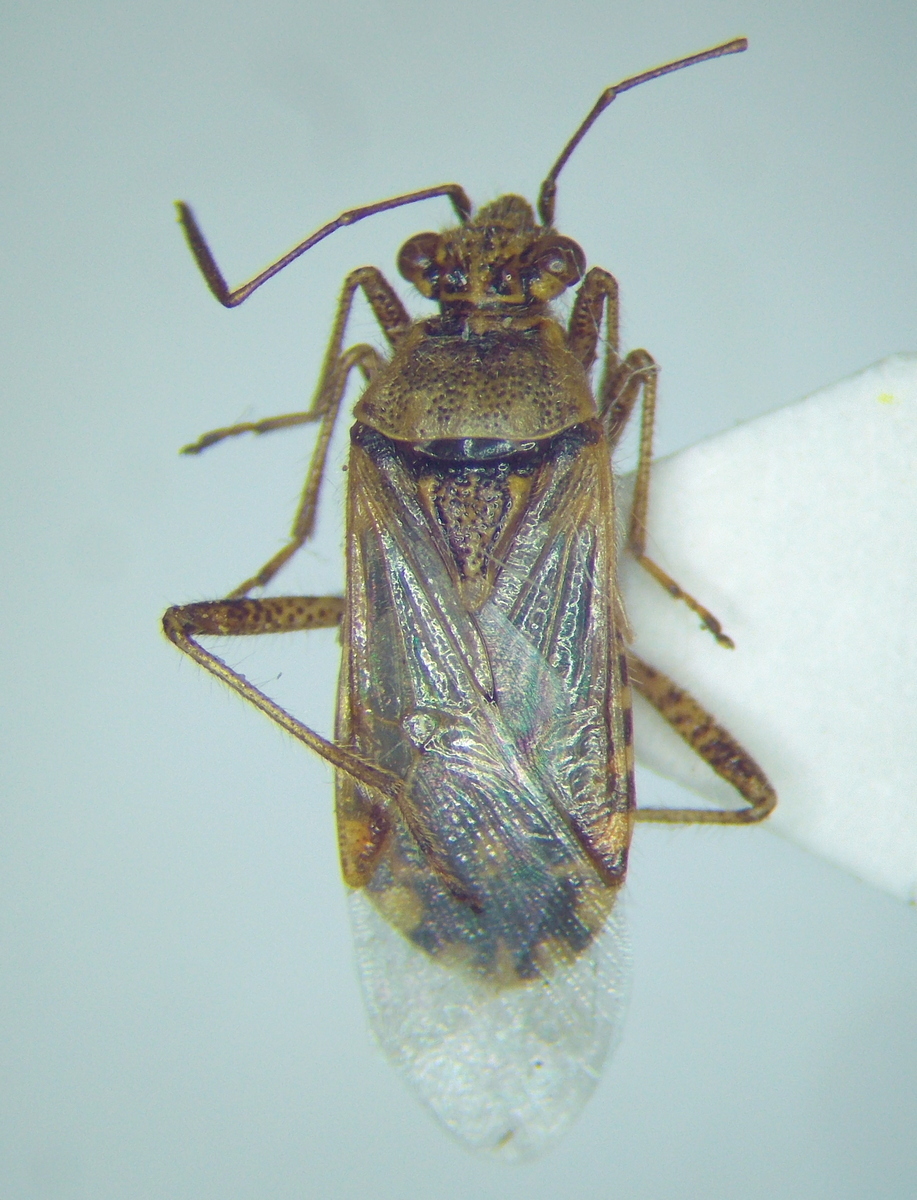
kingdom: Animalia
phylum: Arthropoda
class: Insecta
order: Hemiptera
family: Rhopalidae
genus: Liorhyssus
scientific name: Liorhyssus hyalinus
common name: Scentless plant bug
